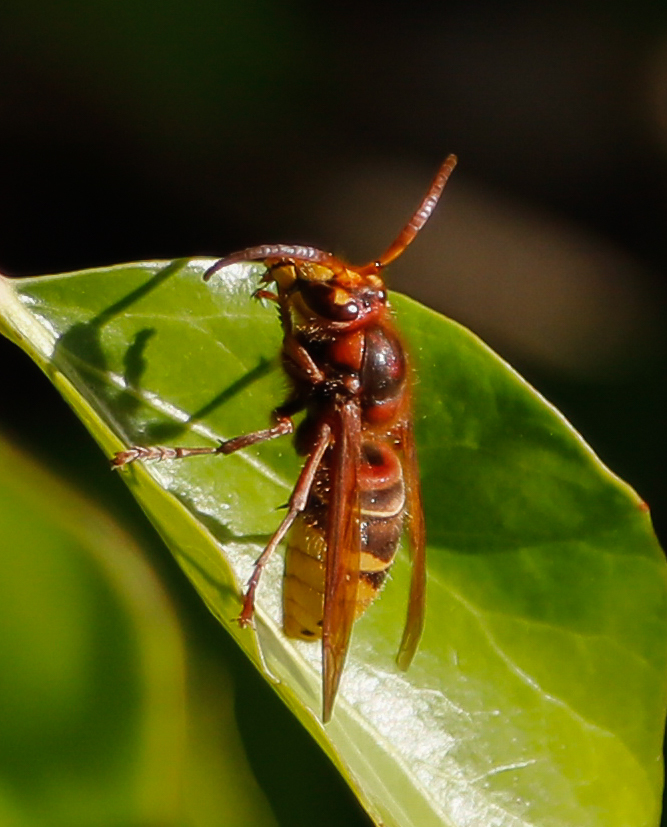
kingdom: Animalia
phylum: Arthropoda
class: Insecta
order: Hymenoptera
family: Vespidae
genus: Vespa
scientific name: Vespa velutina
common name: Asian hornet
